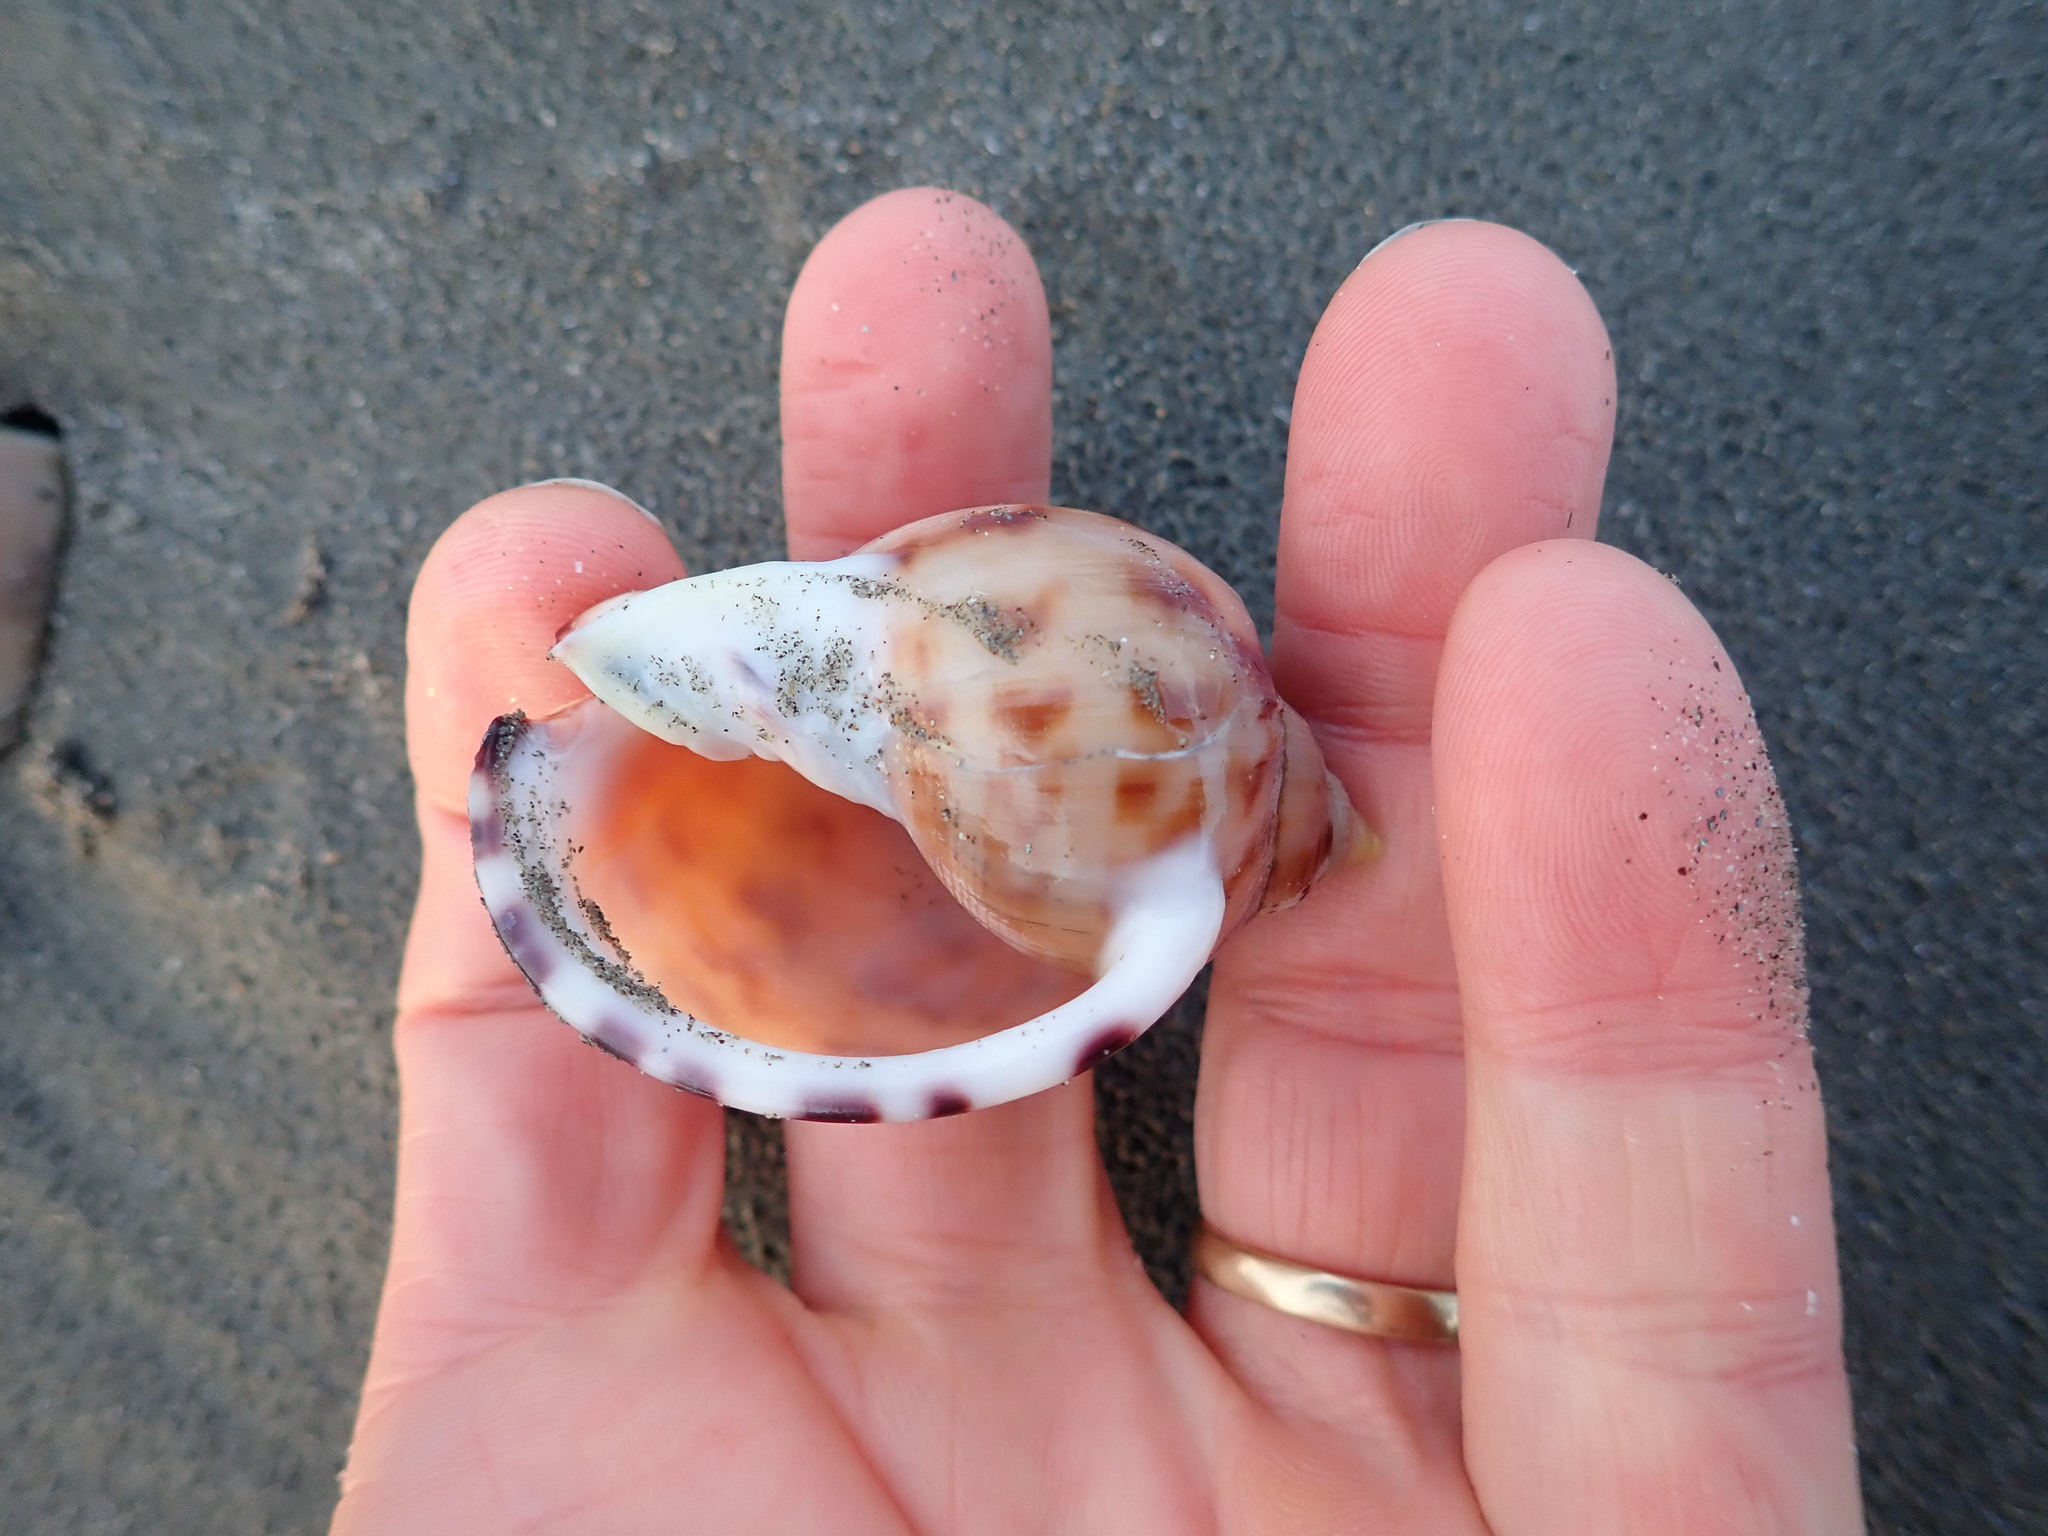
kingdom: Animalia
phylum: Mollusca
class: Gastropoda
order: Littorinimorpha
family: Cassidae
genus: Semicassis
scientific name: Semicassis pyrum
